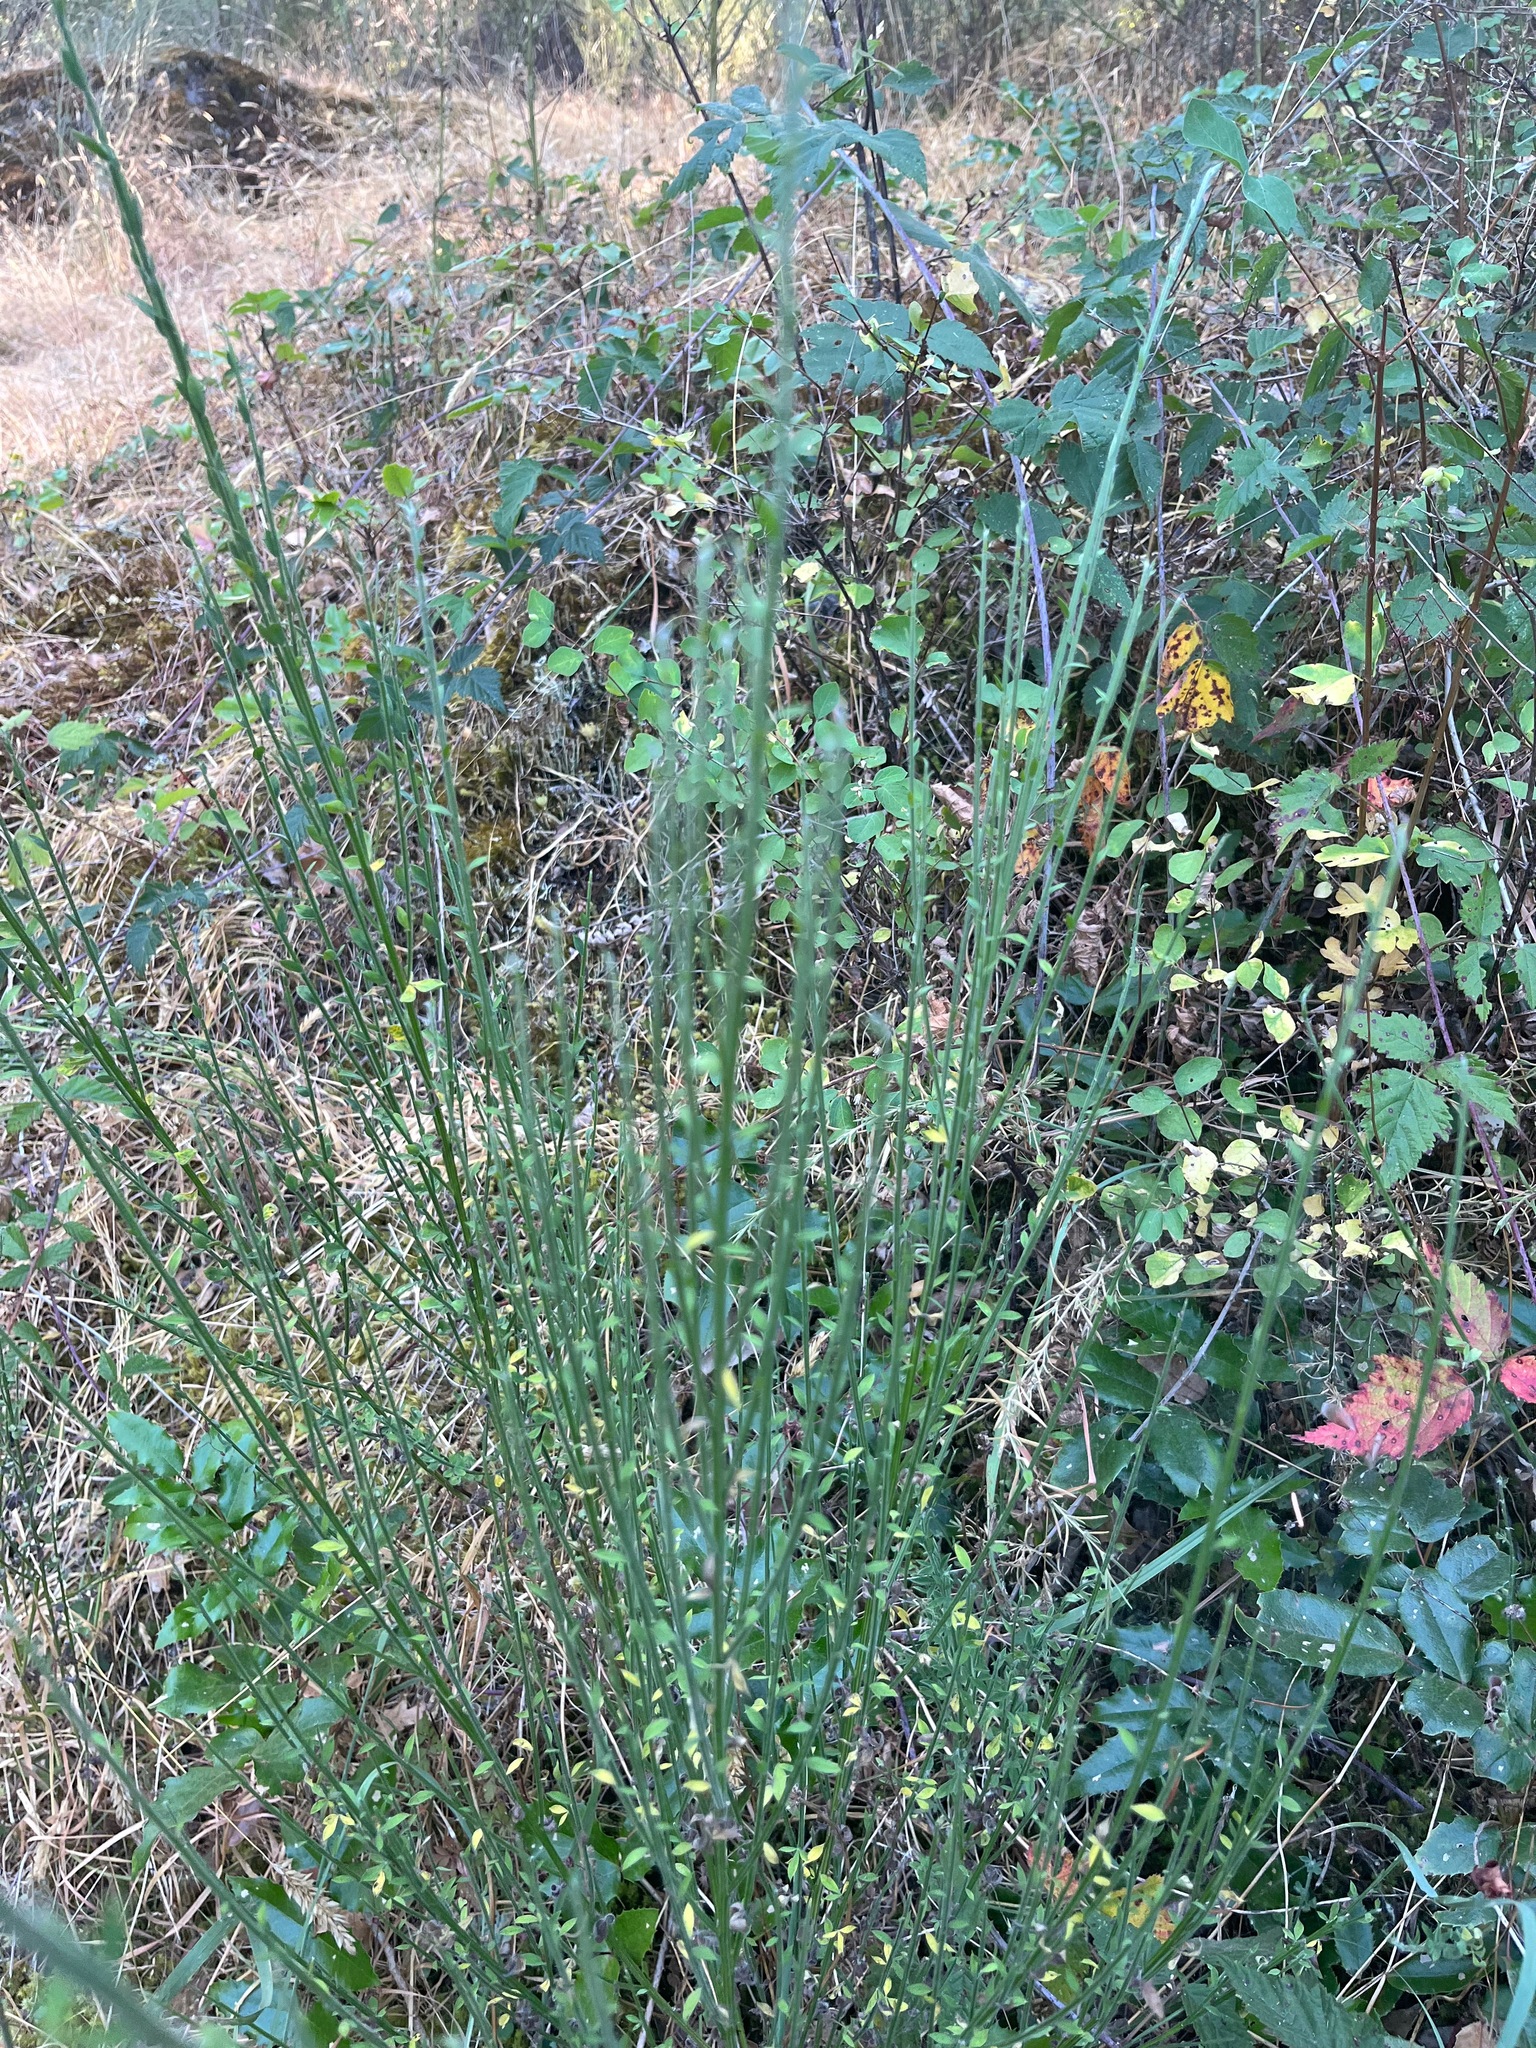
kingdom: Plantae
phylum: Tracheophyta
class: Magnoliopsida
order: Fabales
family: Fabaceae
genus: Cytisus
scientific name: Cytisus scoparius
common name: Scotch broom
